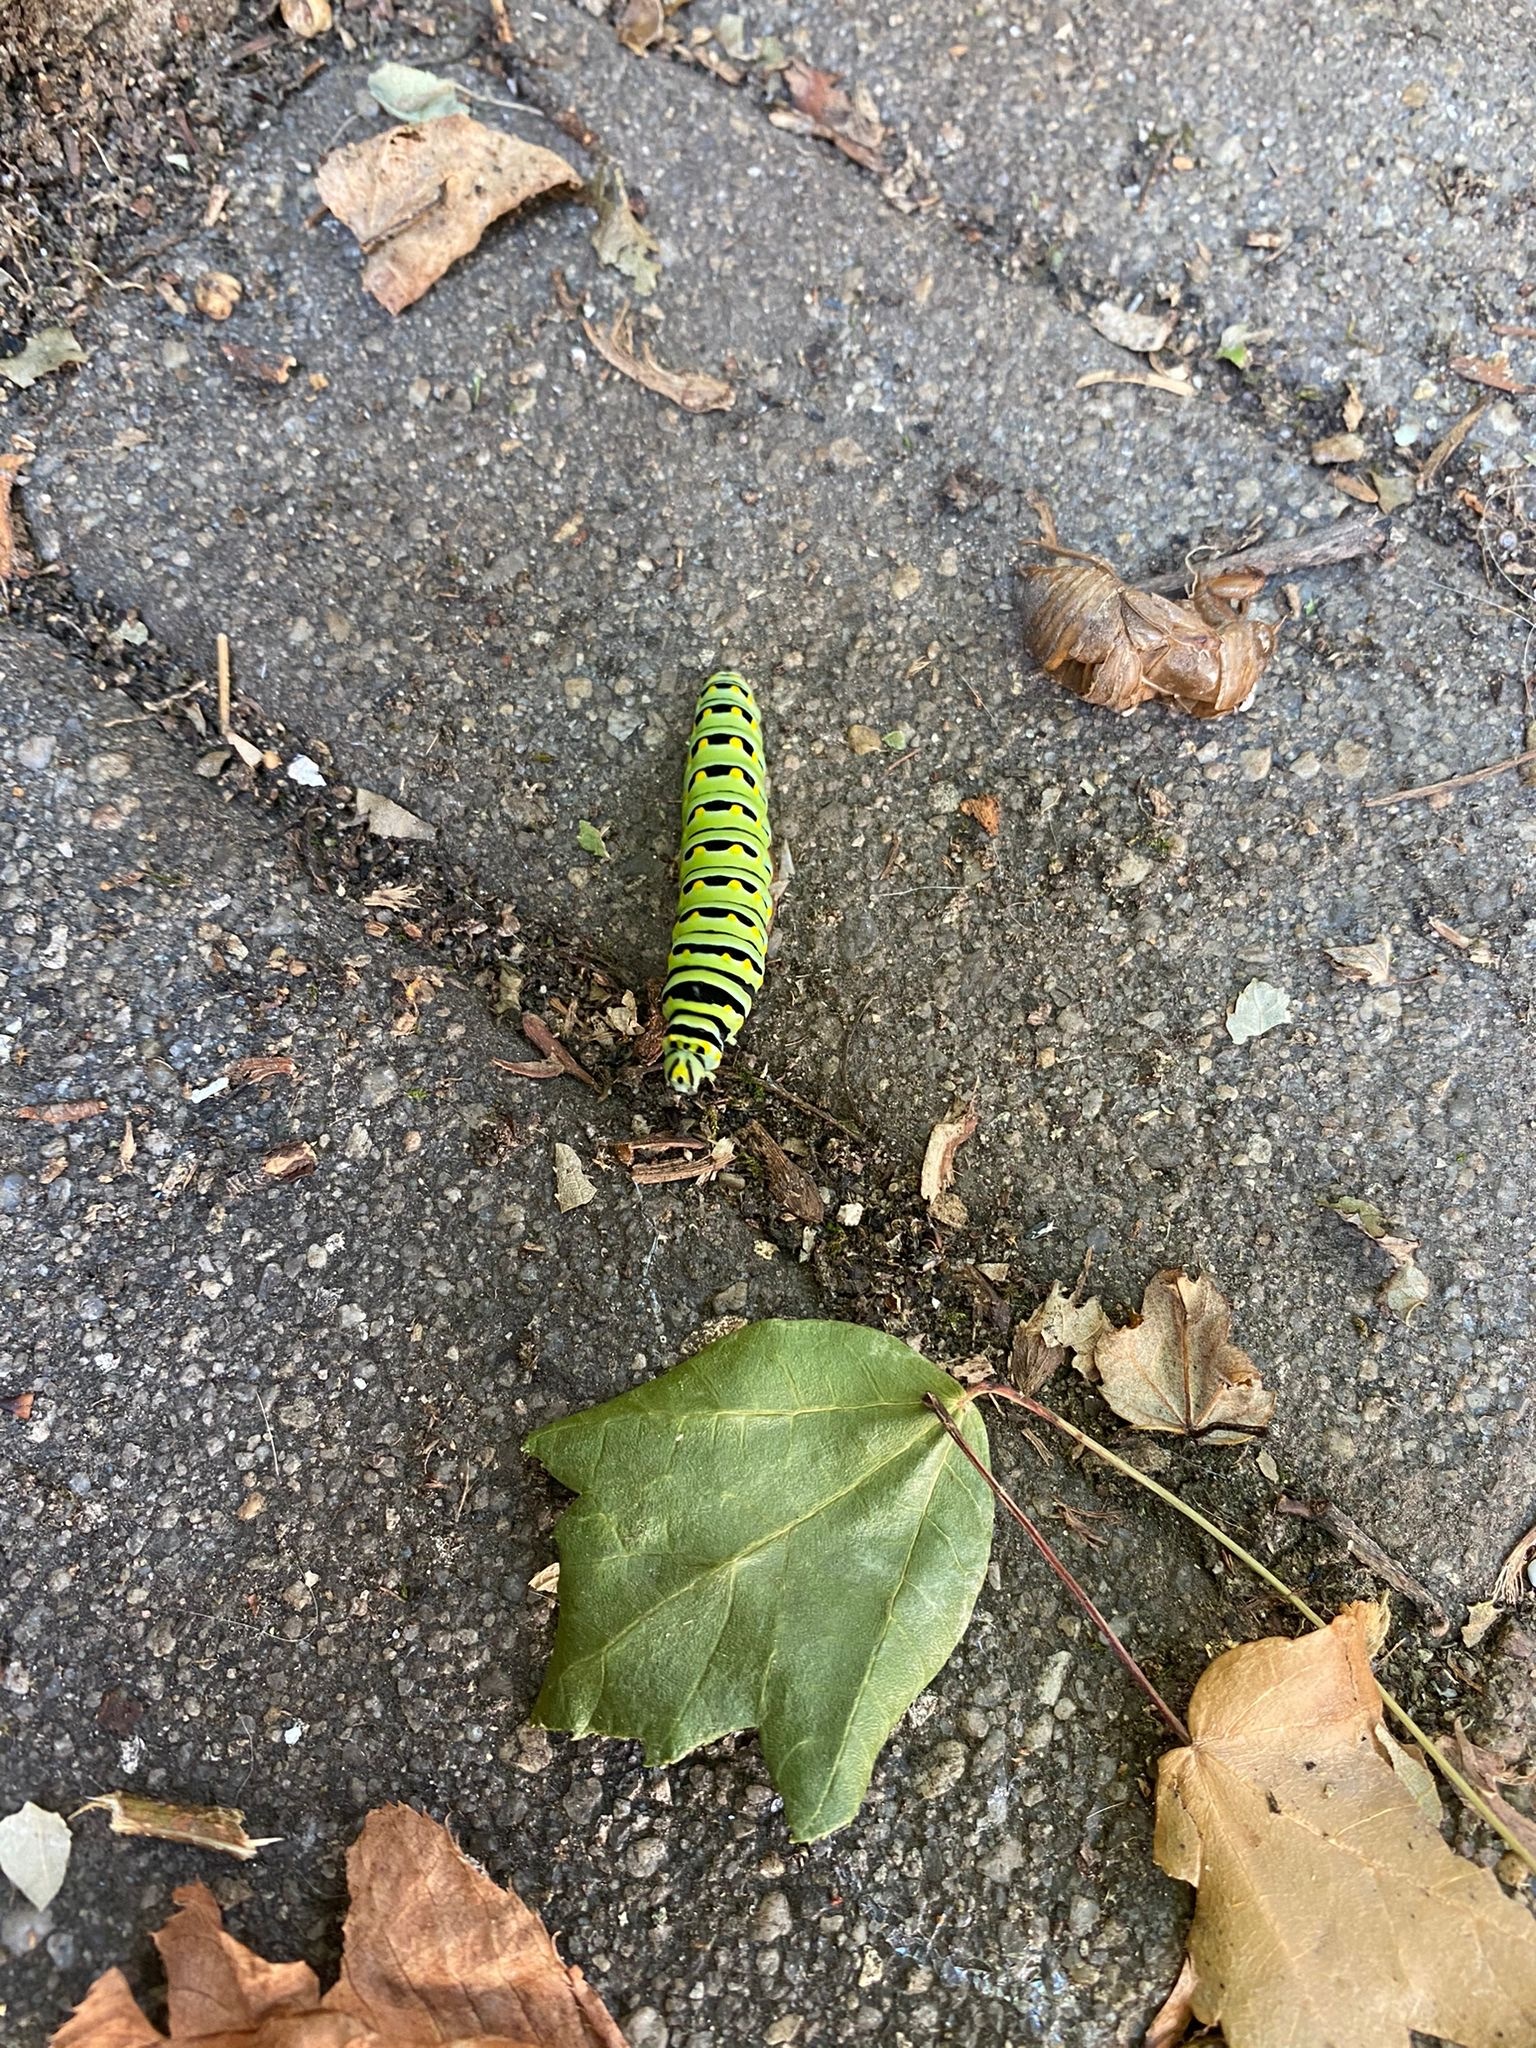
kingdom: Animalia
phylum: Arthropoda
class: Insecta
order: Lepidoptera
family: Papilionidae
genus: Papilio
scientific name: Papilio polyxenes
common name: Black swallowtail
